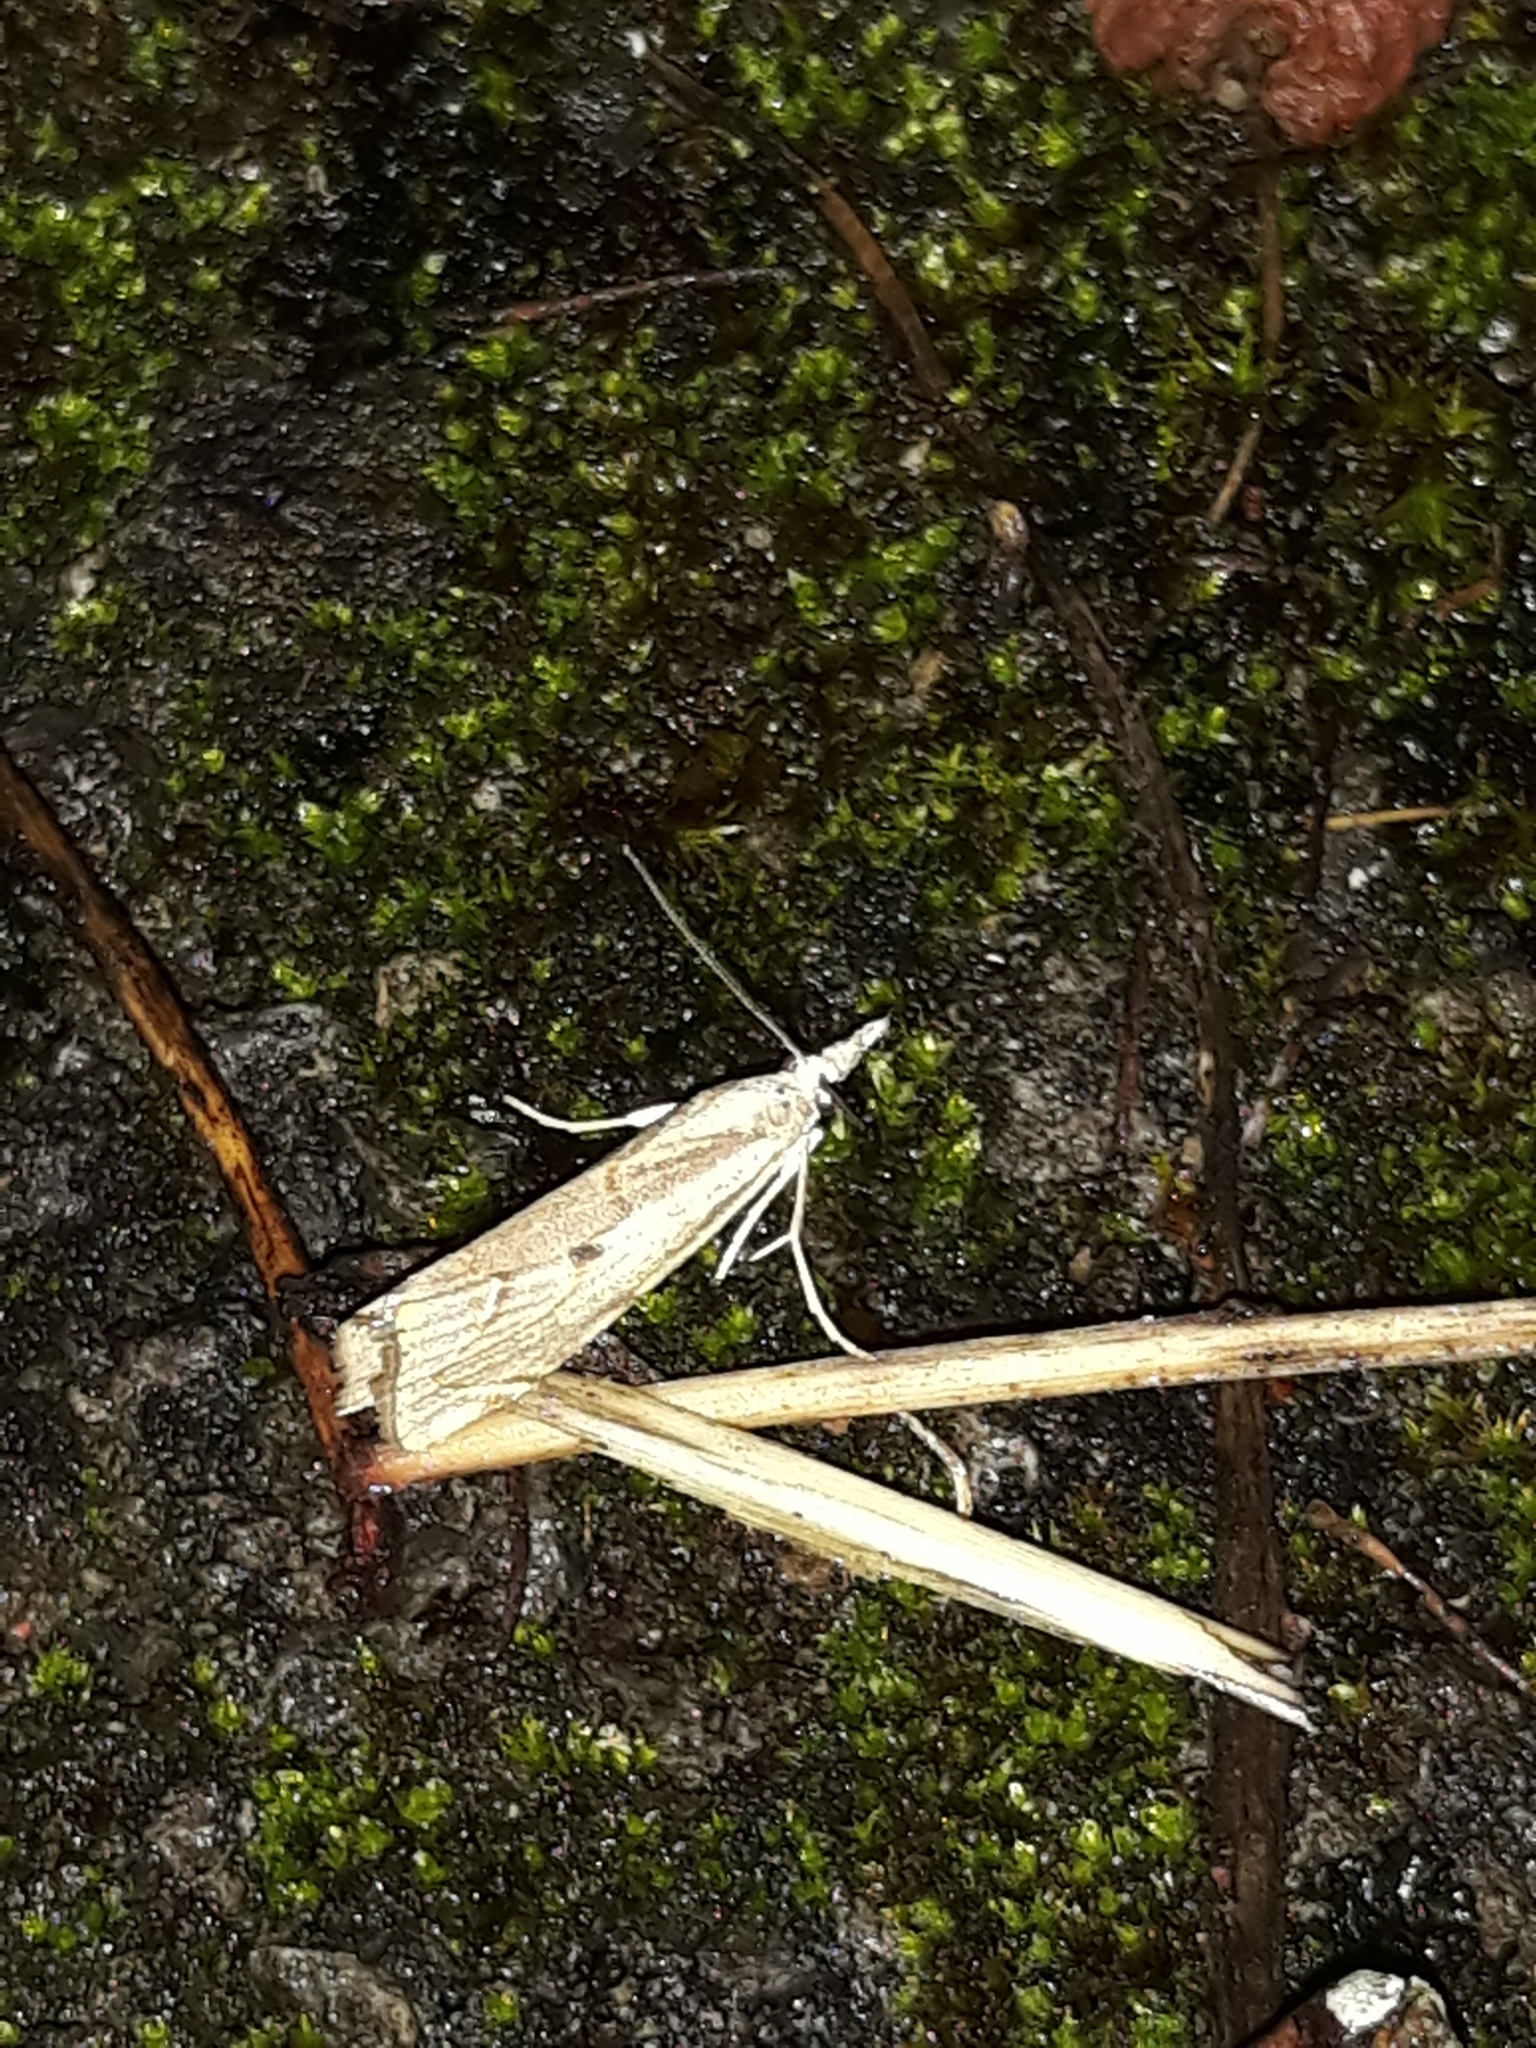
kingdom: Animalia
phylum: Arthropoda
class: Insecta
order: Lepidoptera
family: Crambidae
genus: Agriphila
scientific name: Agriphila geniculea
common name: Elbow-stripe grass-veneer
